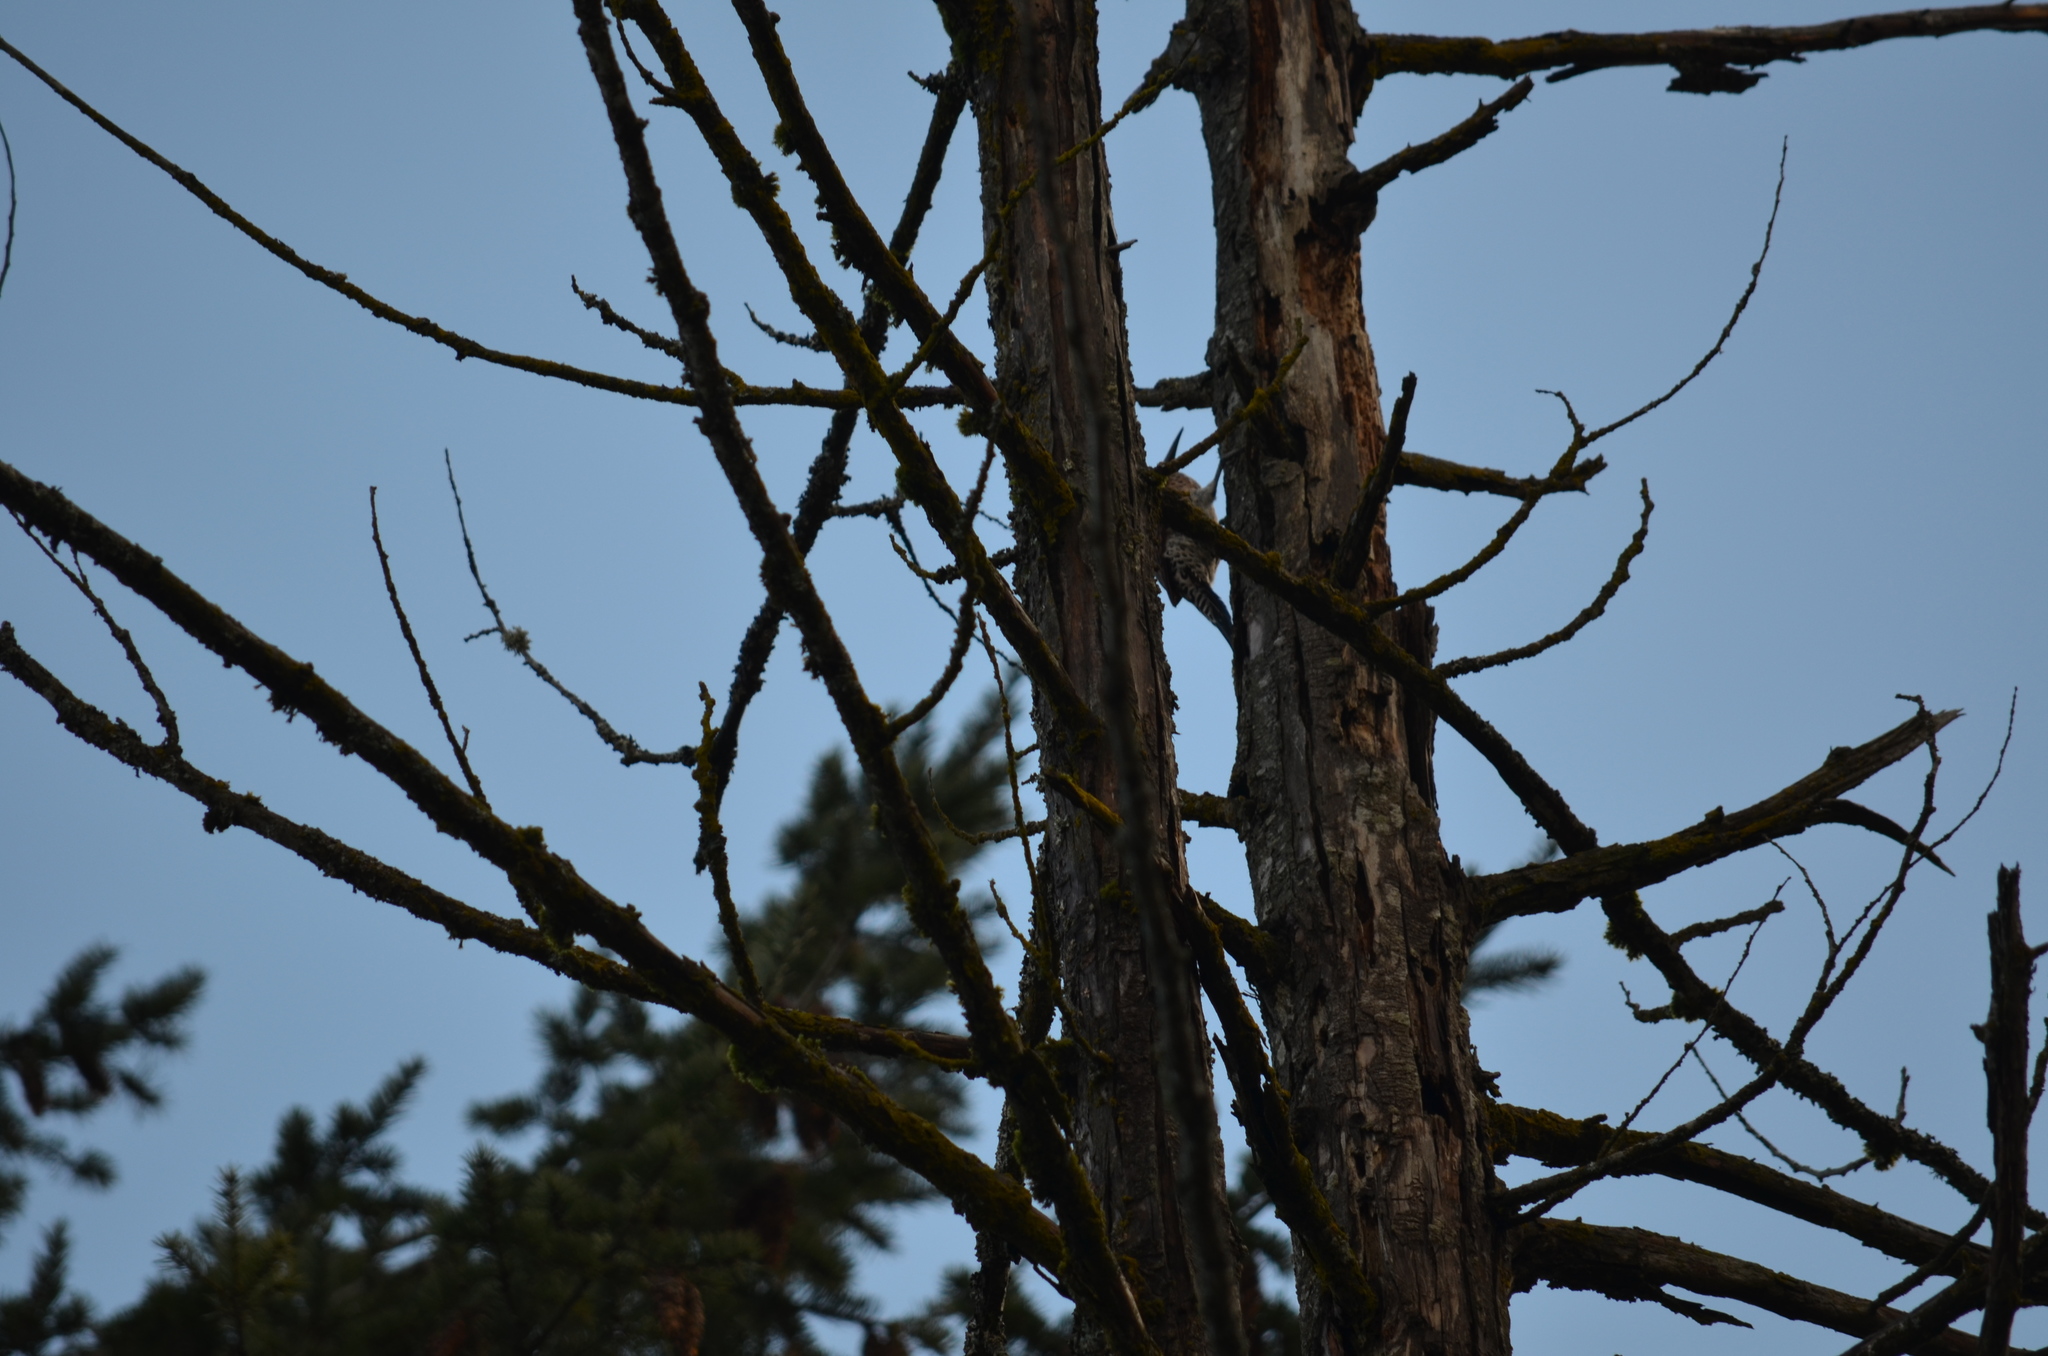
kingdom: Animalia
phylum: Chordata
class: Aves
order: Piciformes
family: Picidae
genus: Colaptes
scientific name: Colaptes auratus
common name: Northern flicker
